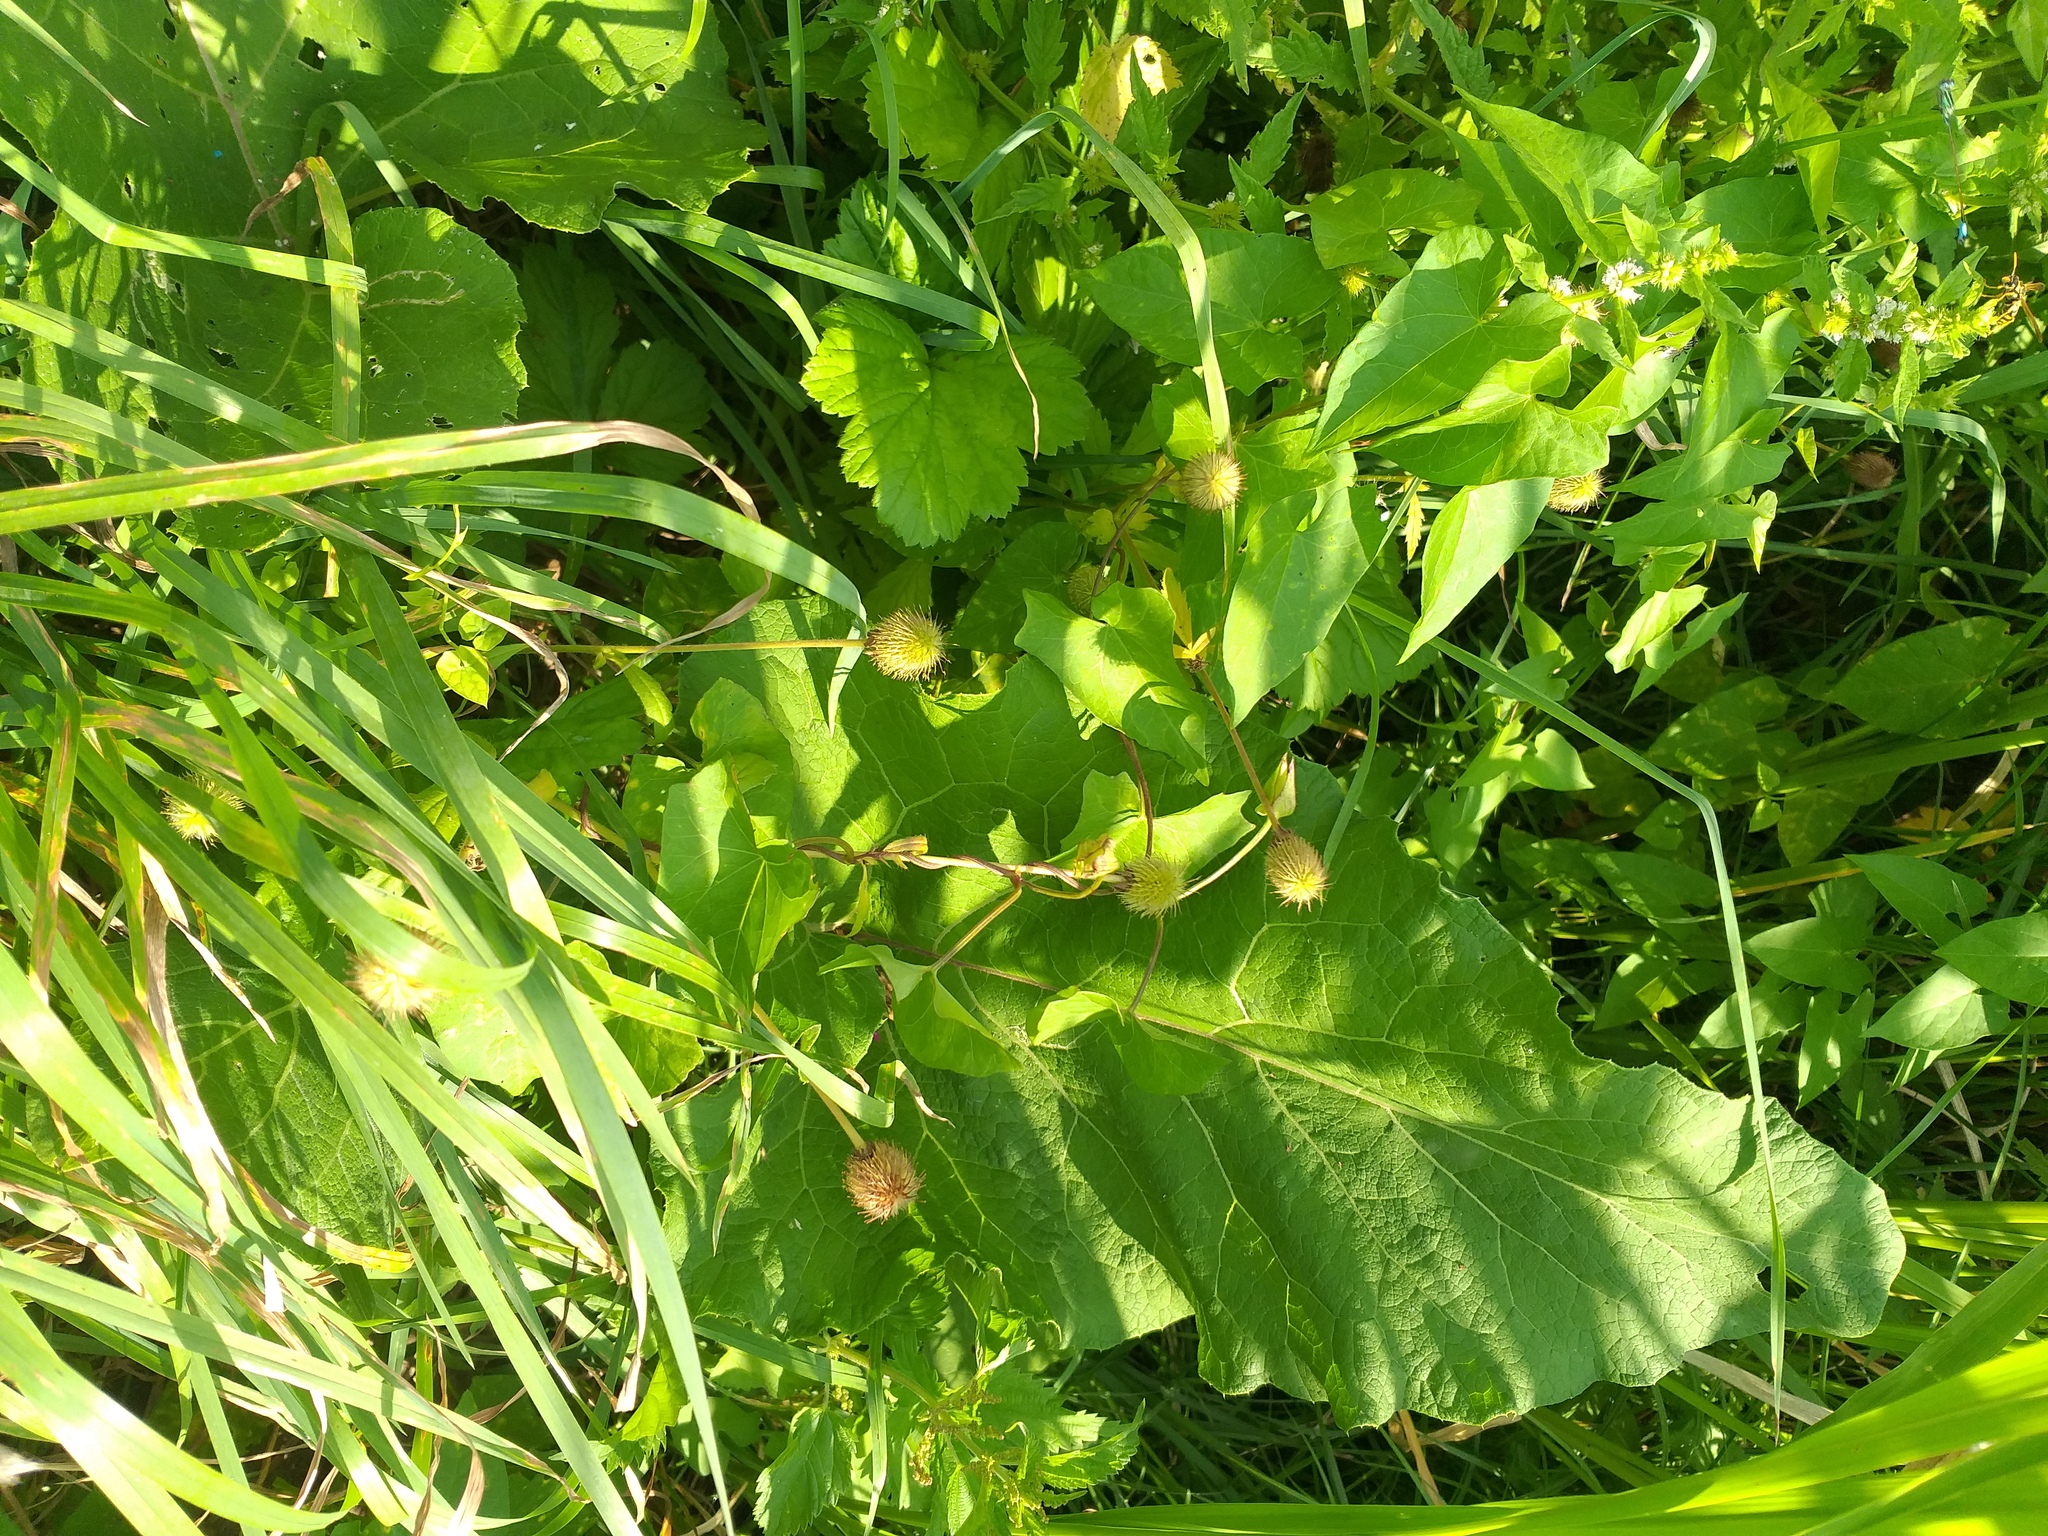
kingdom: Plantae
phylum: Tracheophyta
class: Magnoliopsida
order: Rosales
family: Rosaceae
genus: Geum
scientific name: Geum aleppicum
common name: Yellow avens
